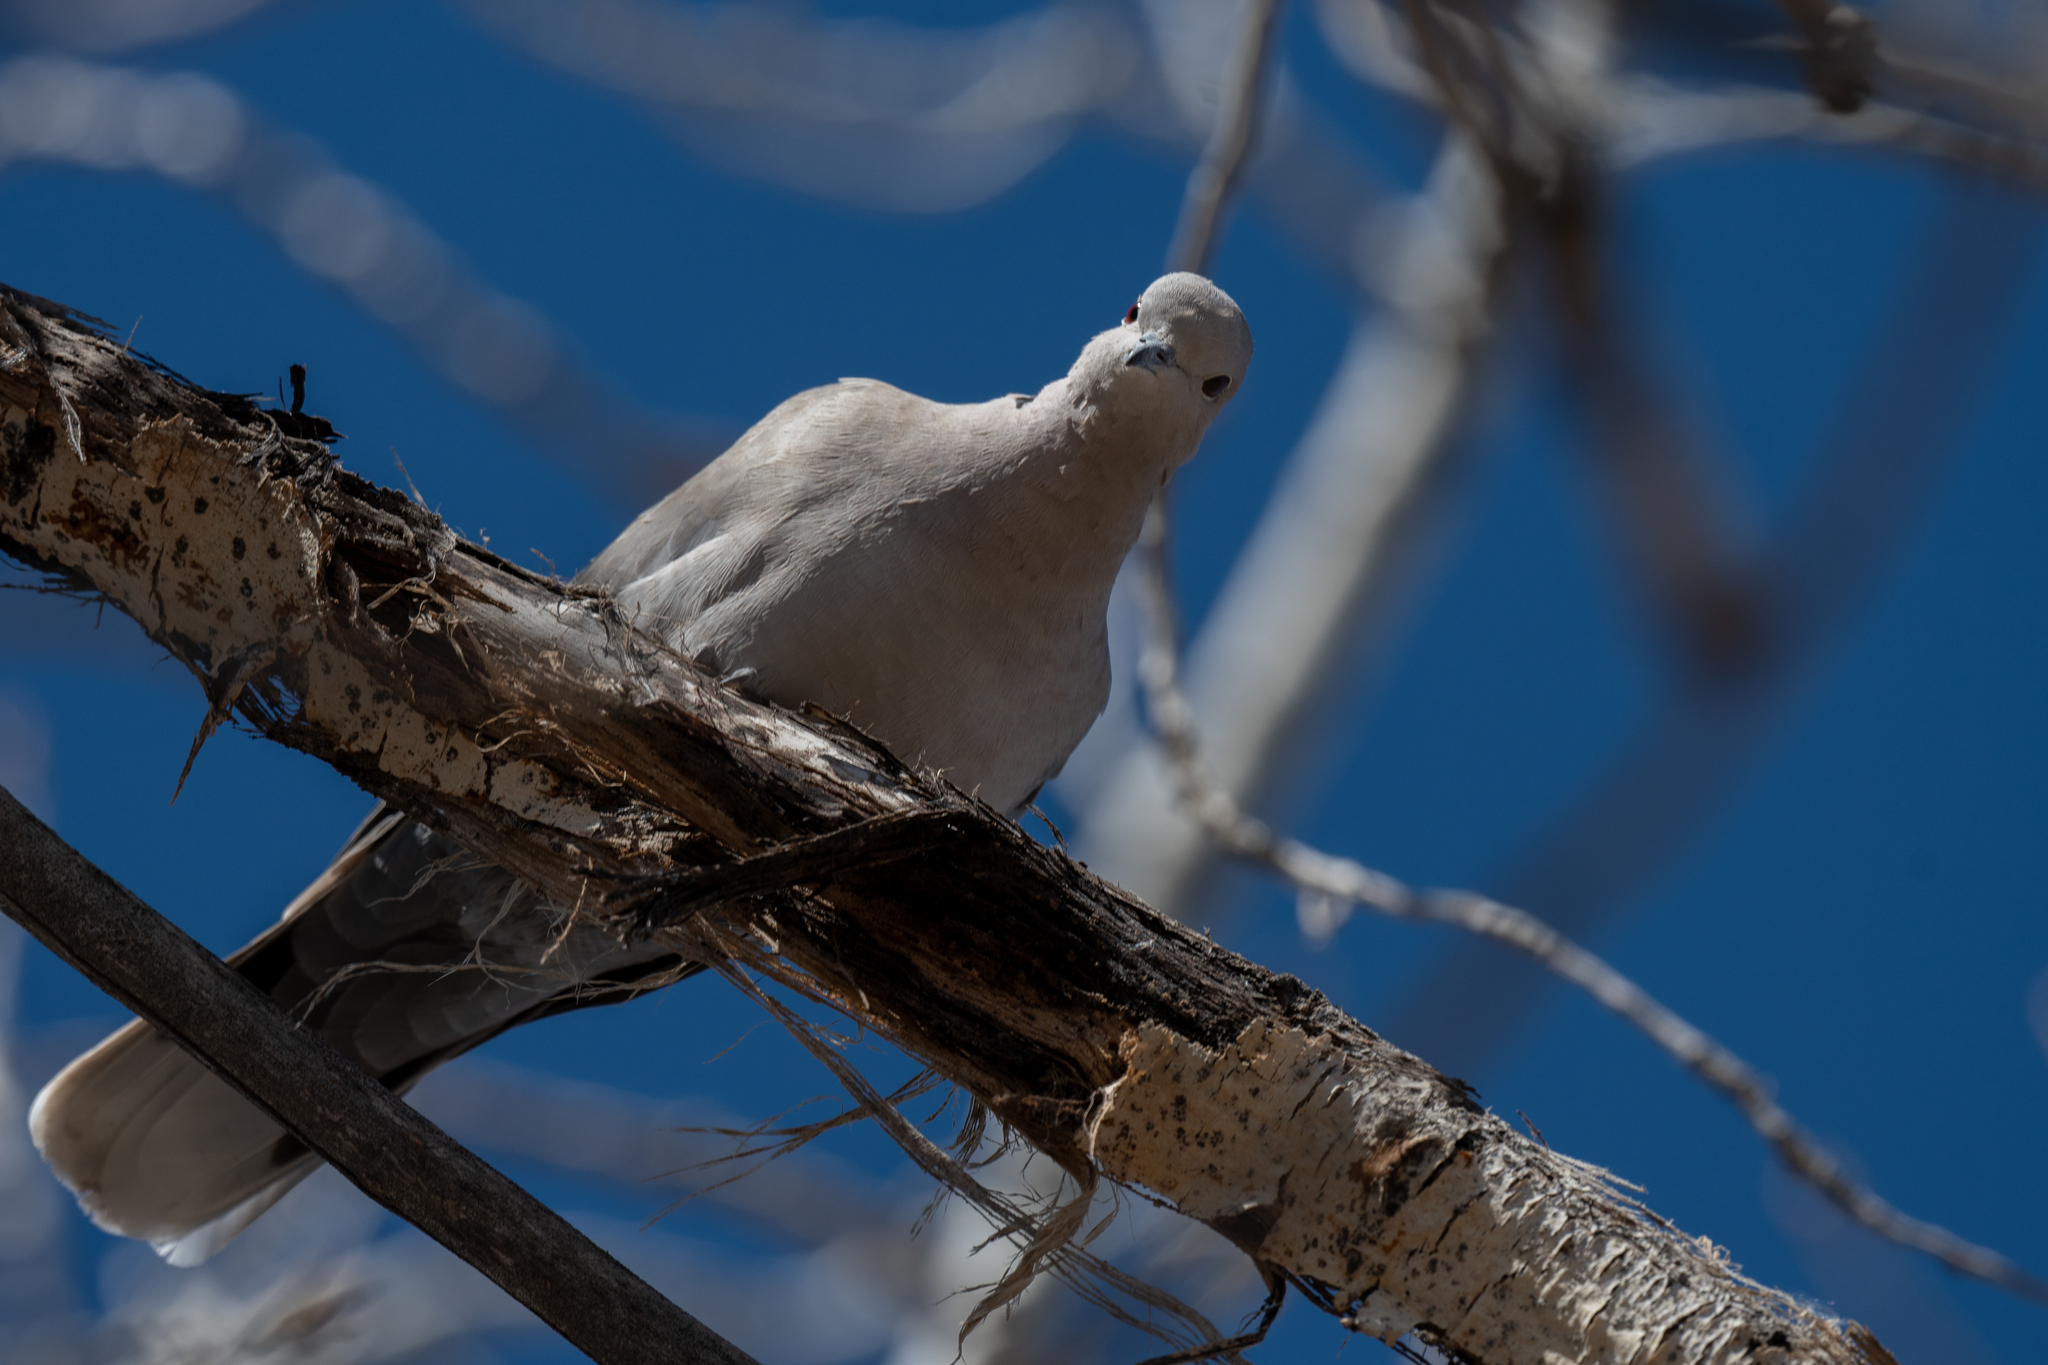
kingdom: Animalia
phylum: Chordata
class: Aves
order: Columbiformes
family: Columbidae
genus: Streptopelia
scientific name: Streptopelia decaocto
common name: Eurasian collared dove
